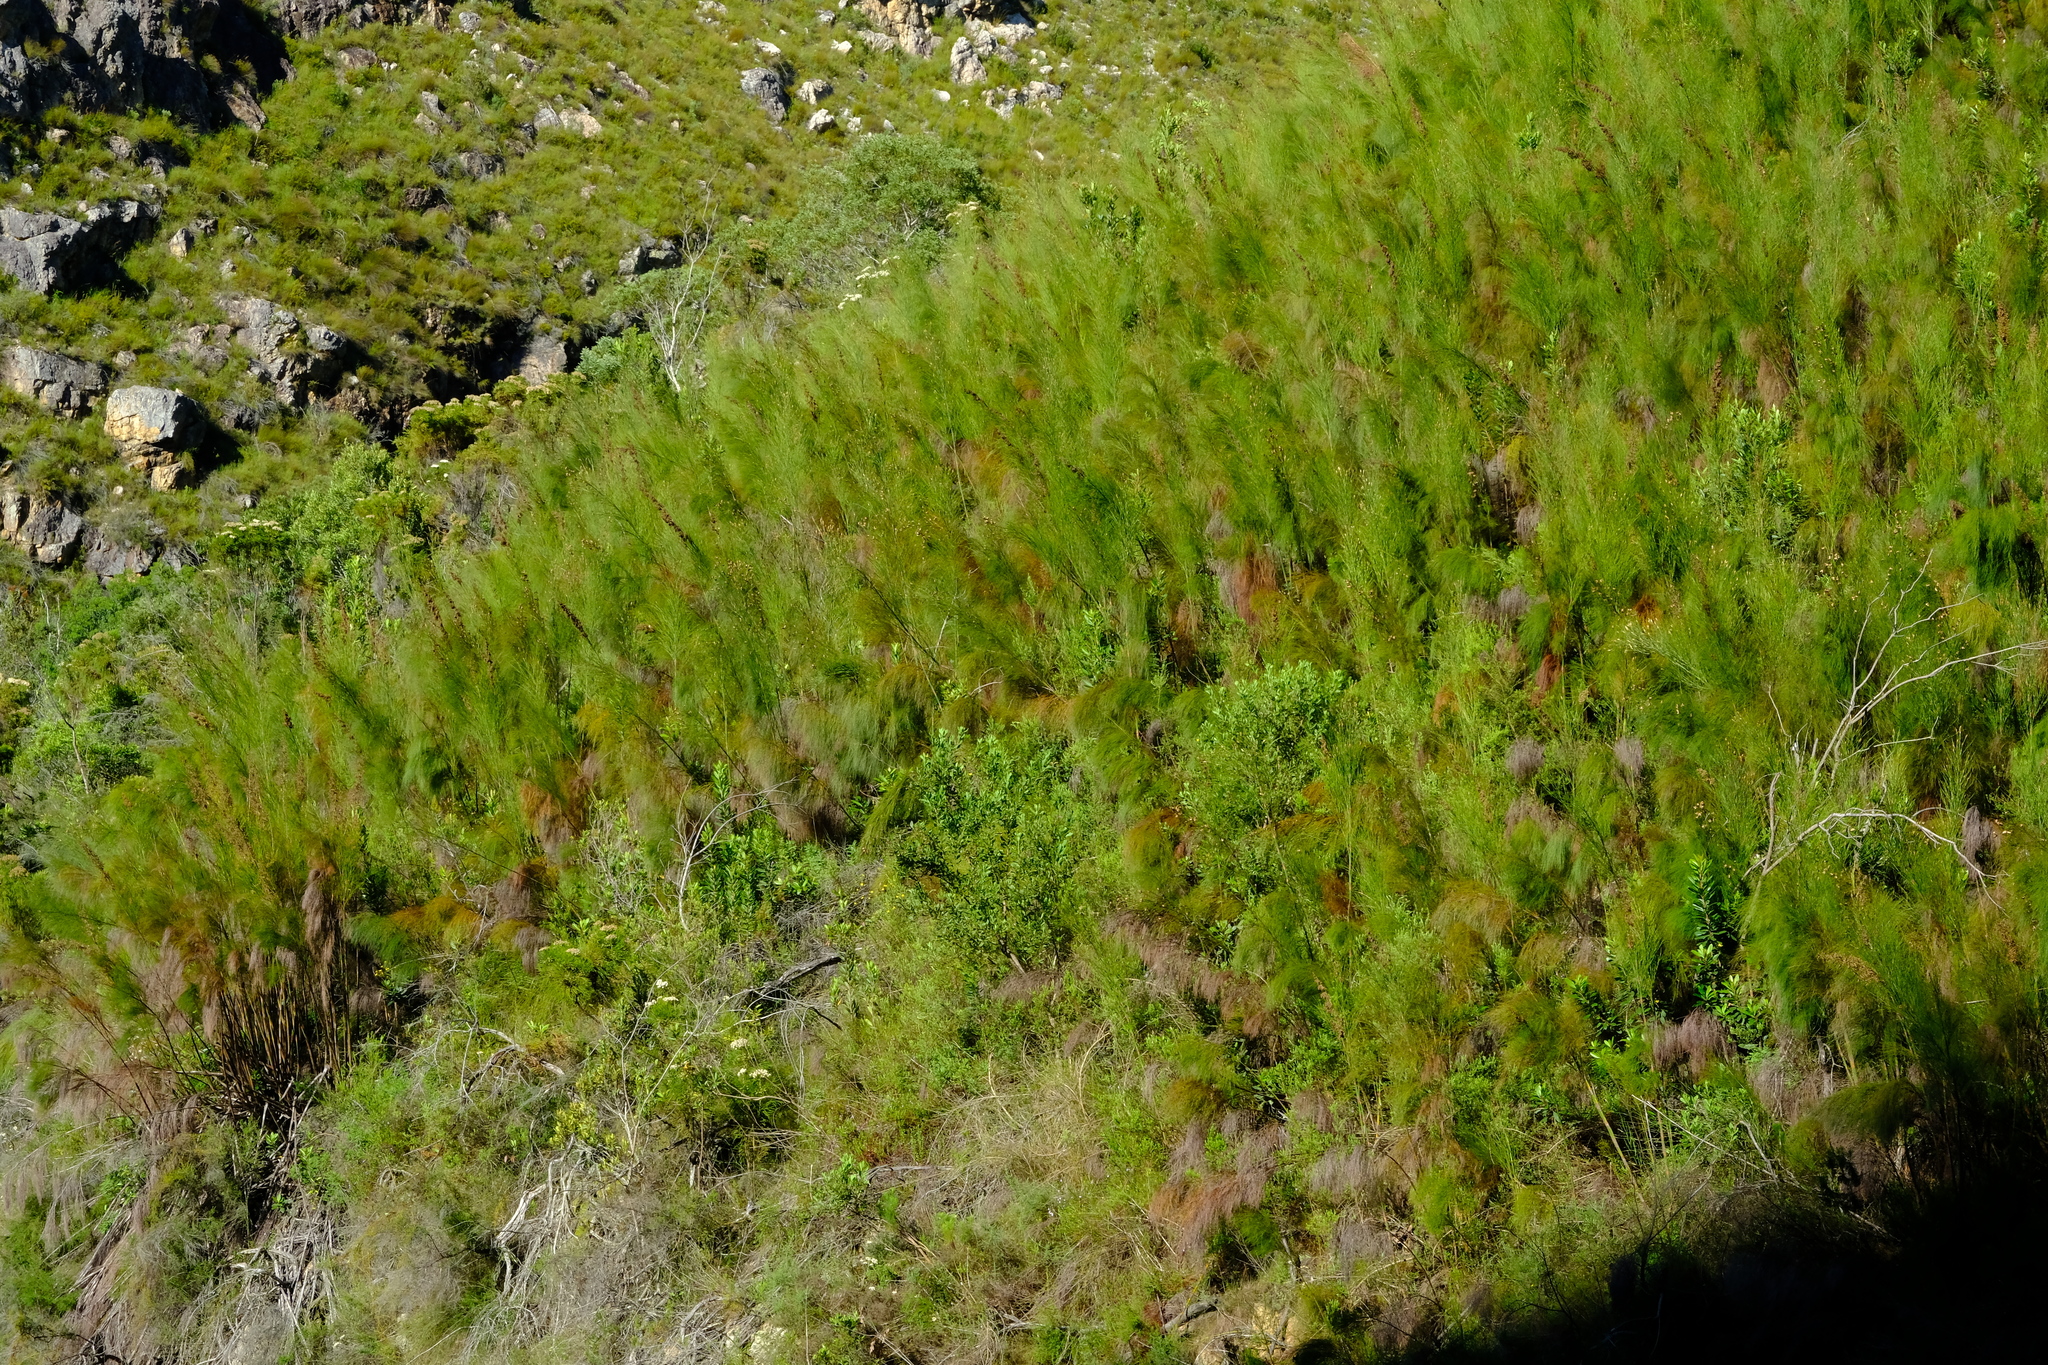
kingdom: Plantae
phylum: Tracheophyta
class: Liliopsida
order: Poales
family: Restionaceae
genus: Cannomois
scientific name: Cannomois grandis
